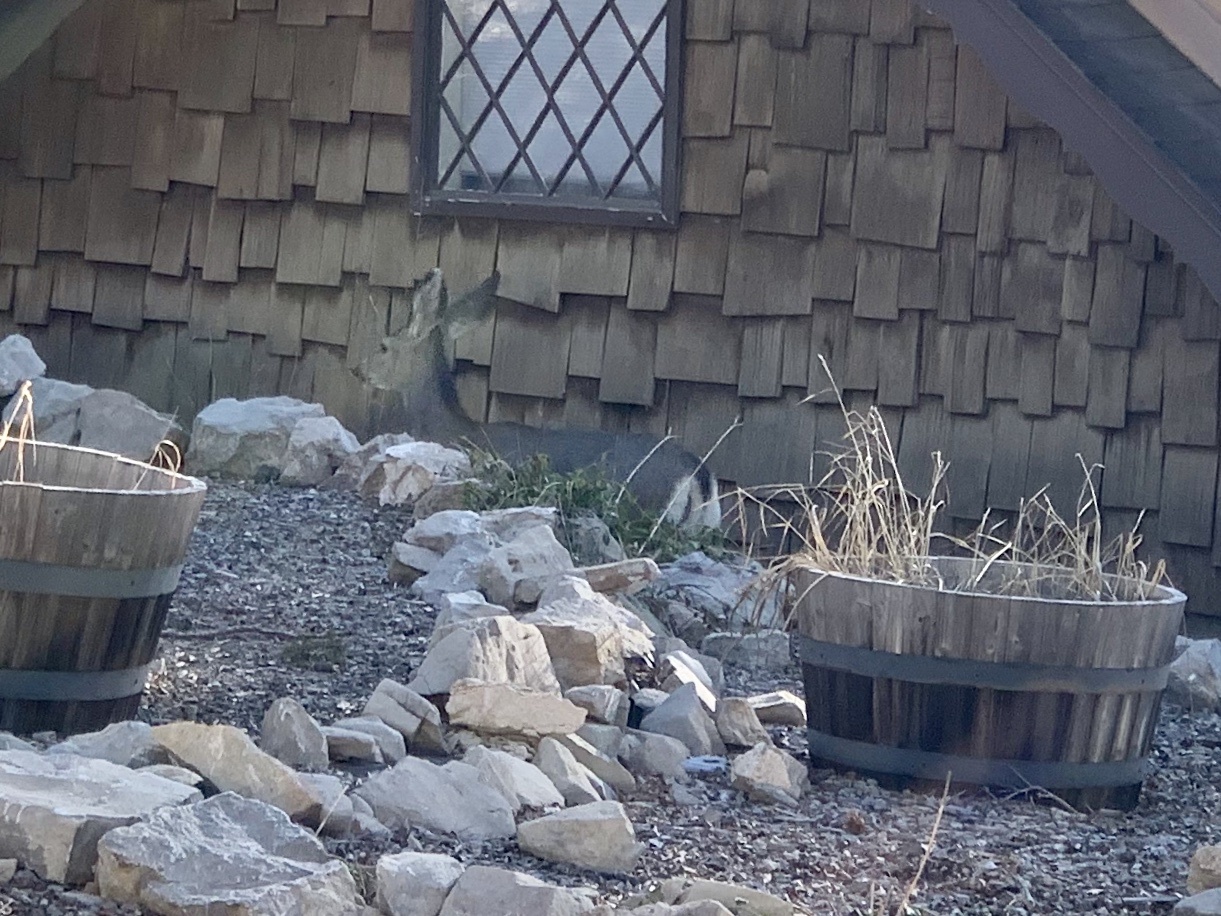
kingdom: Animalia
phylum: Chordata
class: Mammalia
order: Artiodactyla
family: Cervidae
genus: Odocoileus
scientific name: Odocoileus hemionus
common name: Mule deer
